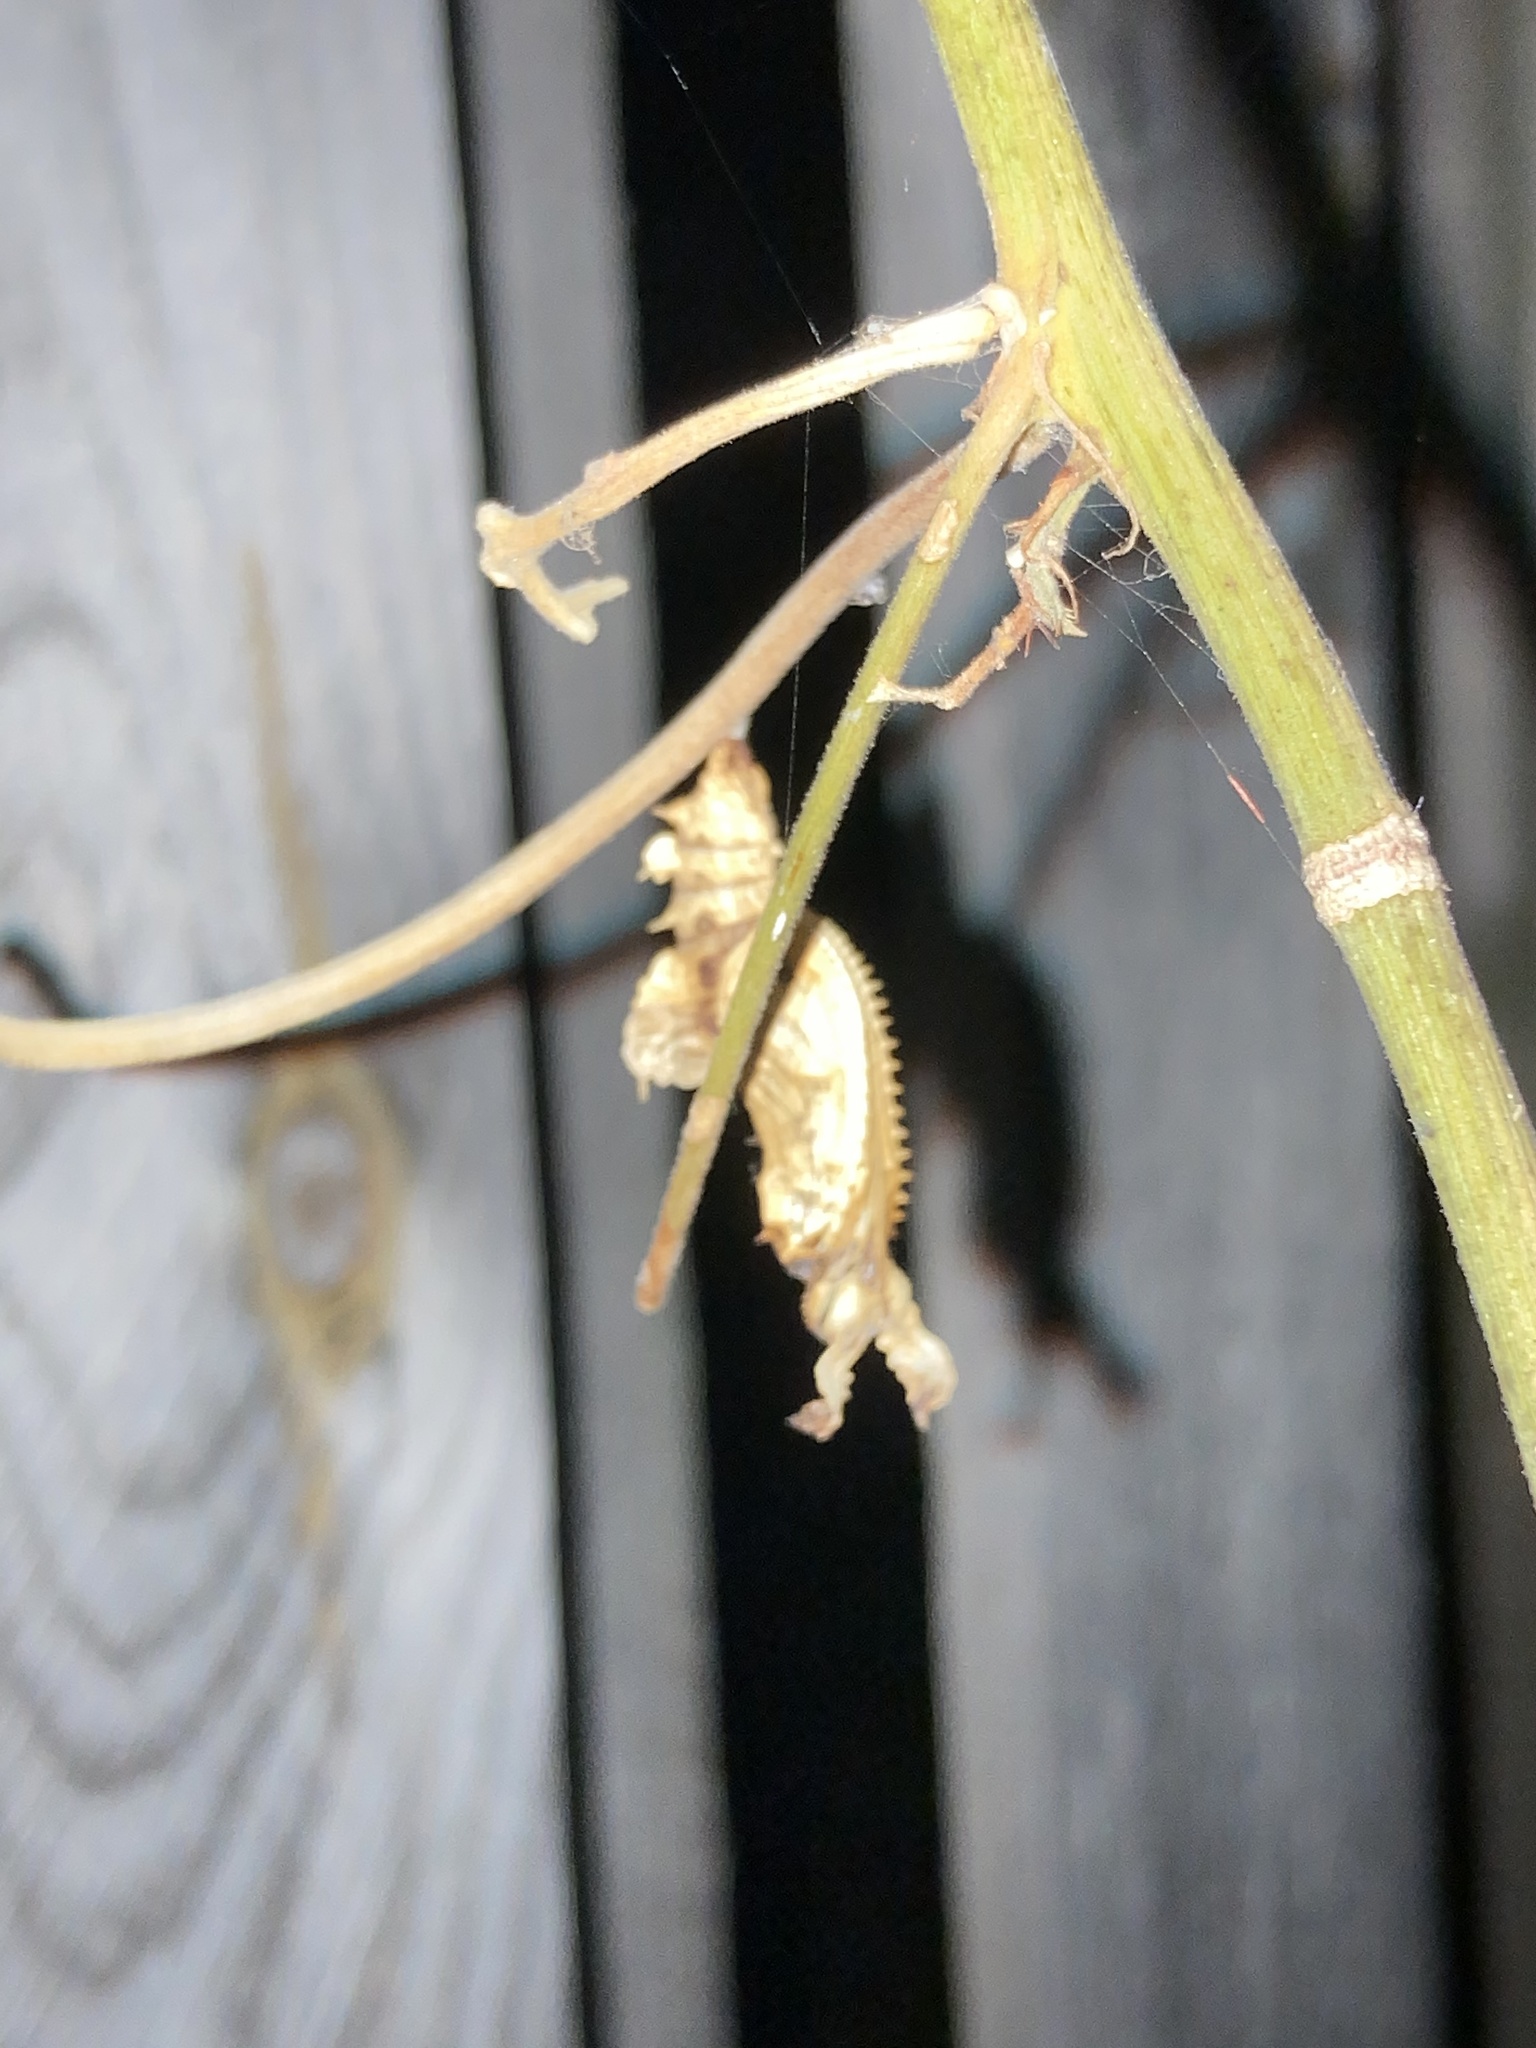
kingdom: Animalia
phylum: Arthropoda
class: Insecta
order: Lepidoptera
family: Nymphalidae
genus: Heliconius
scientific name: Heliconius charithonia
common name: Zebra long wing
